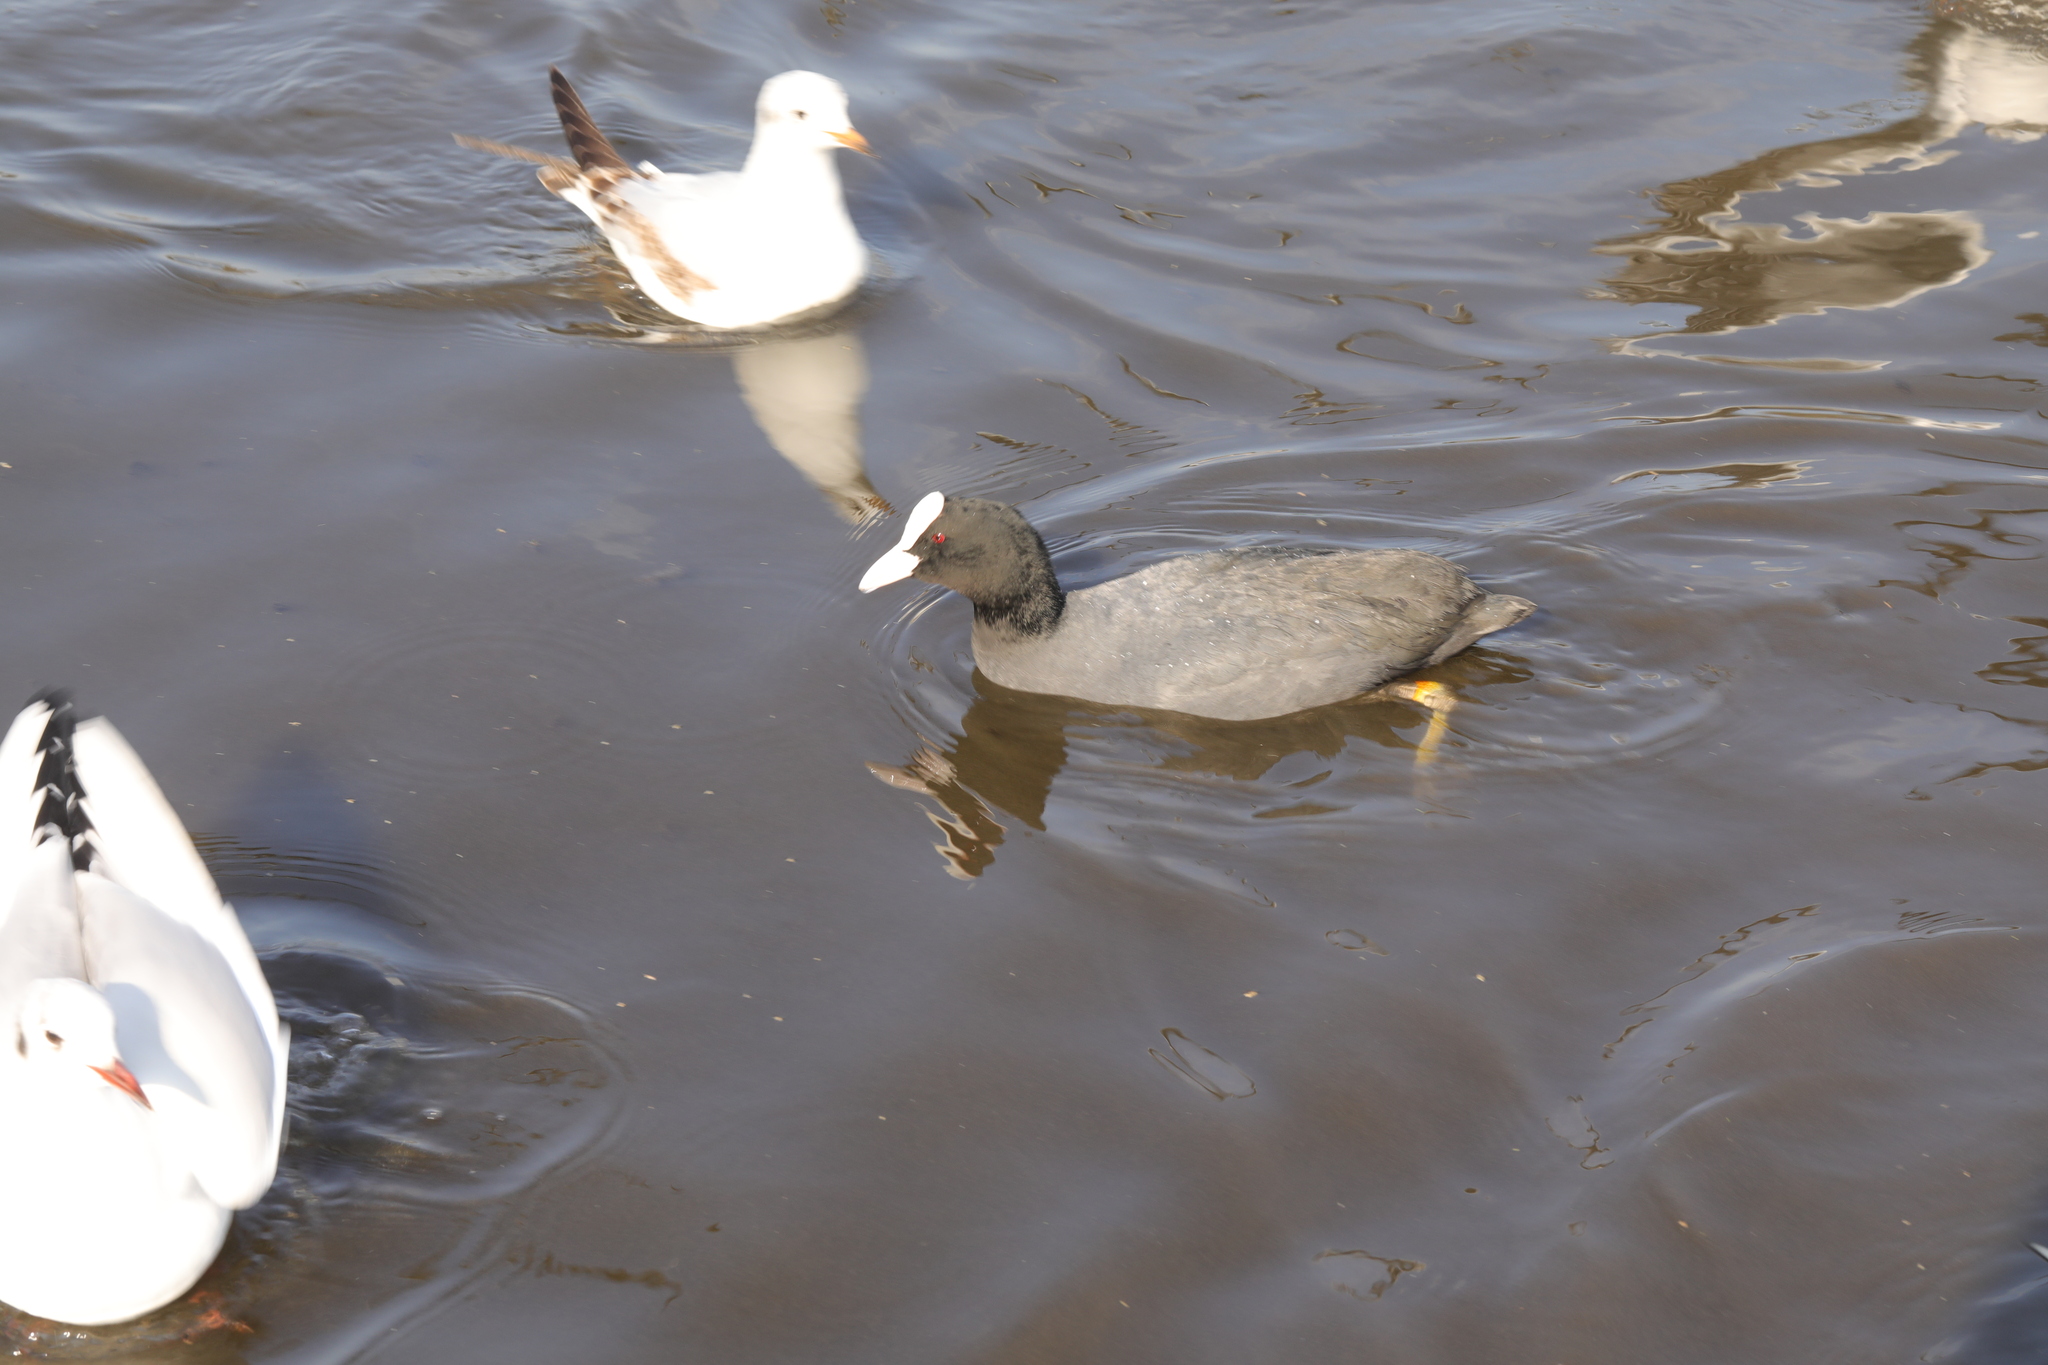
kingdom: Animalia
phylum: Chordata
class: Aves
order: Gruiformes
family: Rallidae
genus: Fulica
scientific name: Fulica atra
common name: Eurasian coot
